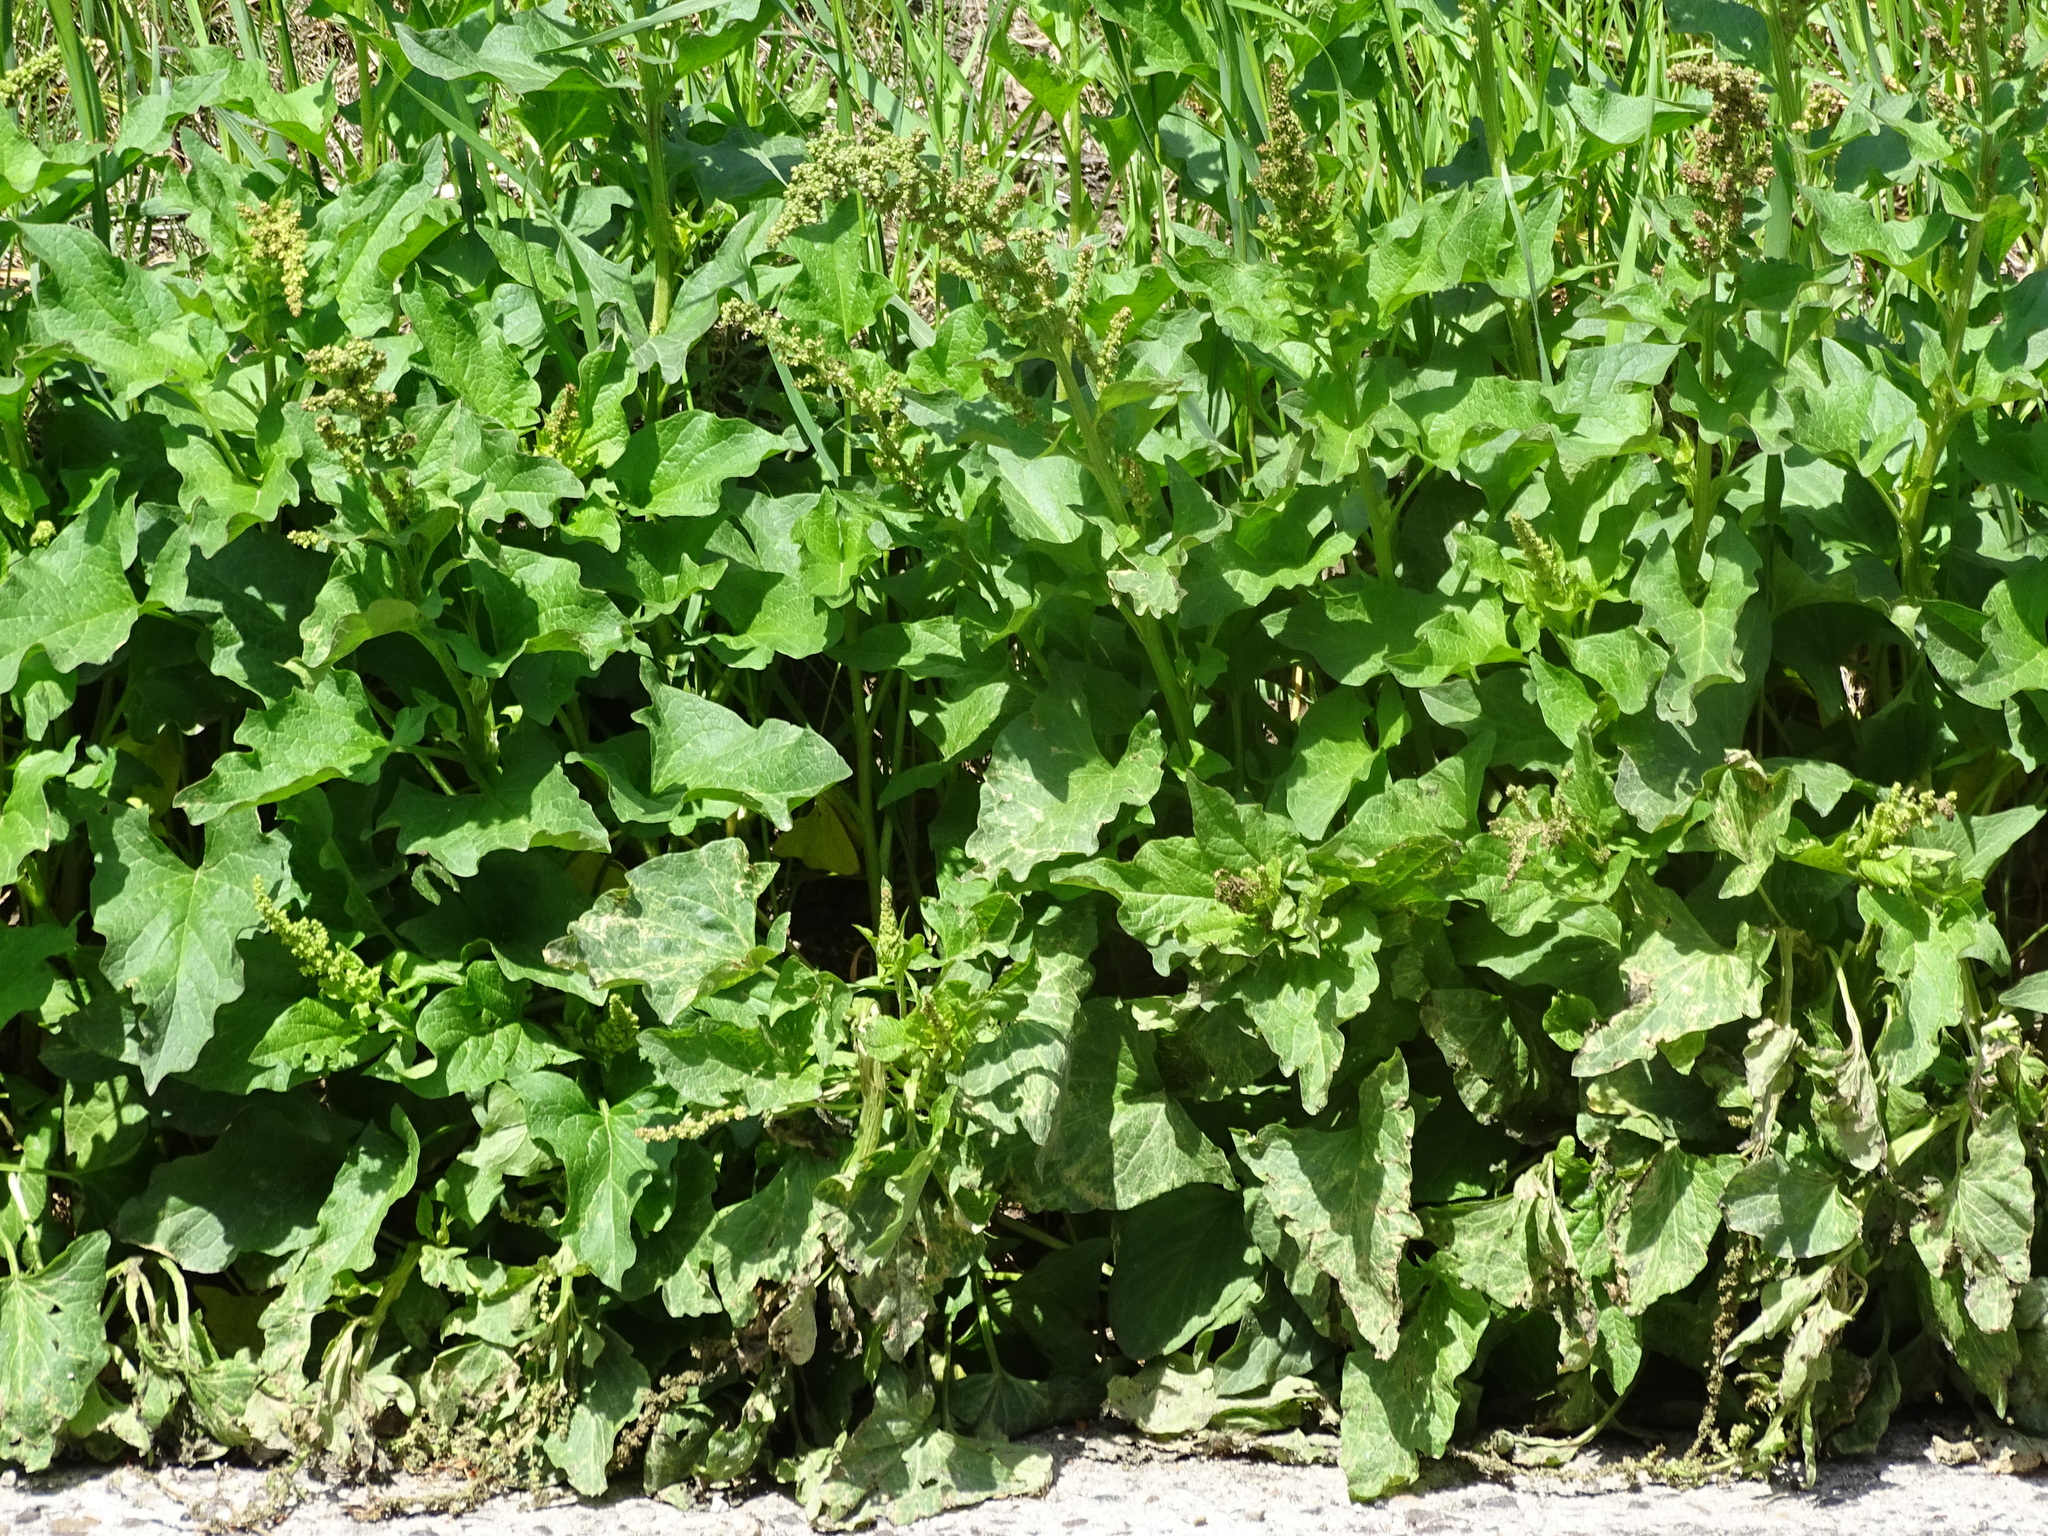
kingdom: Plantae
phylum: Tracheophyta
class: Magnoliopsida
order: Caryophyllales
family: Amaranthaceae
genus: Blitum
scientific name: Blitum bonus-henricus
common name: Good king henry
